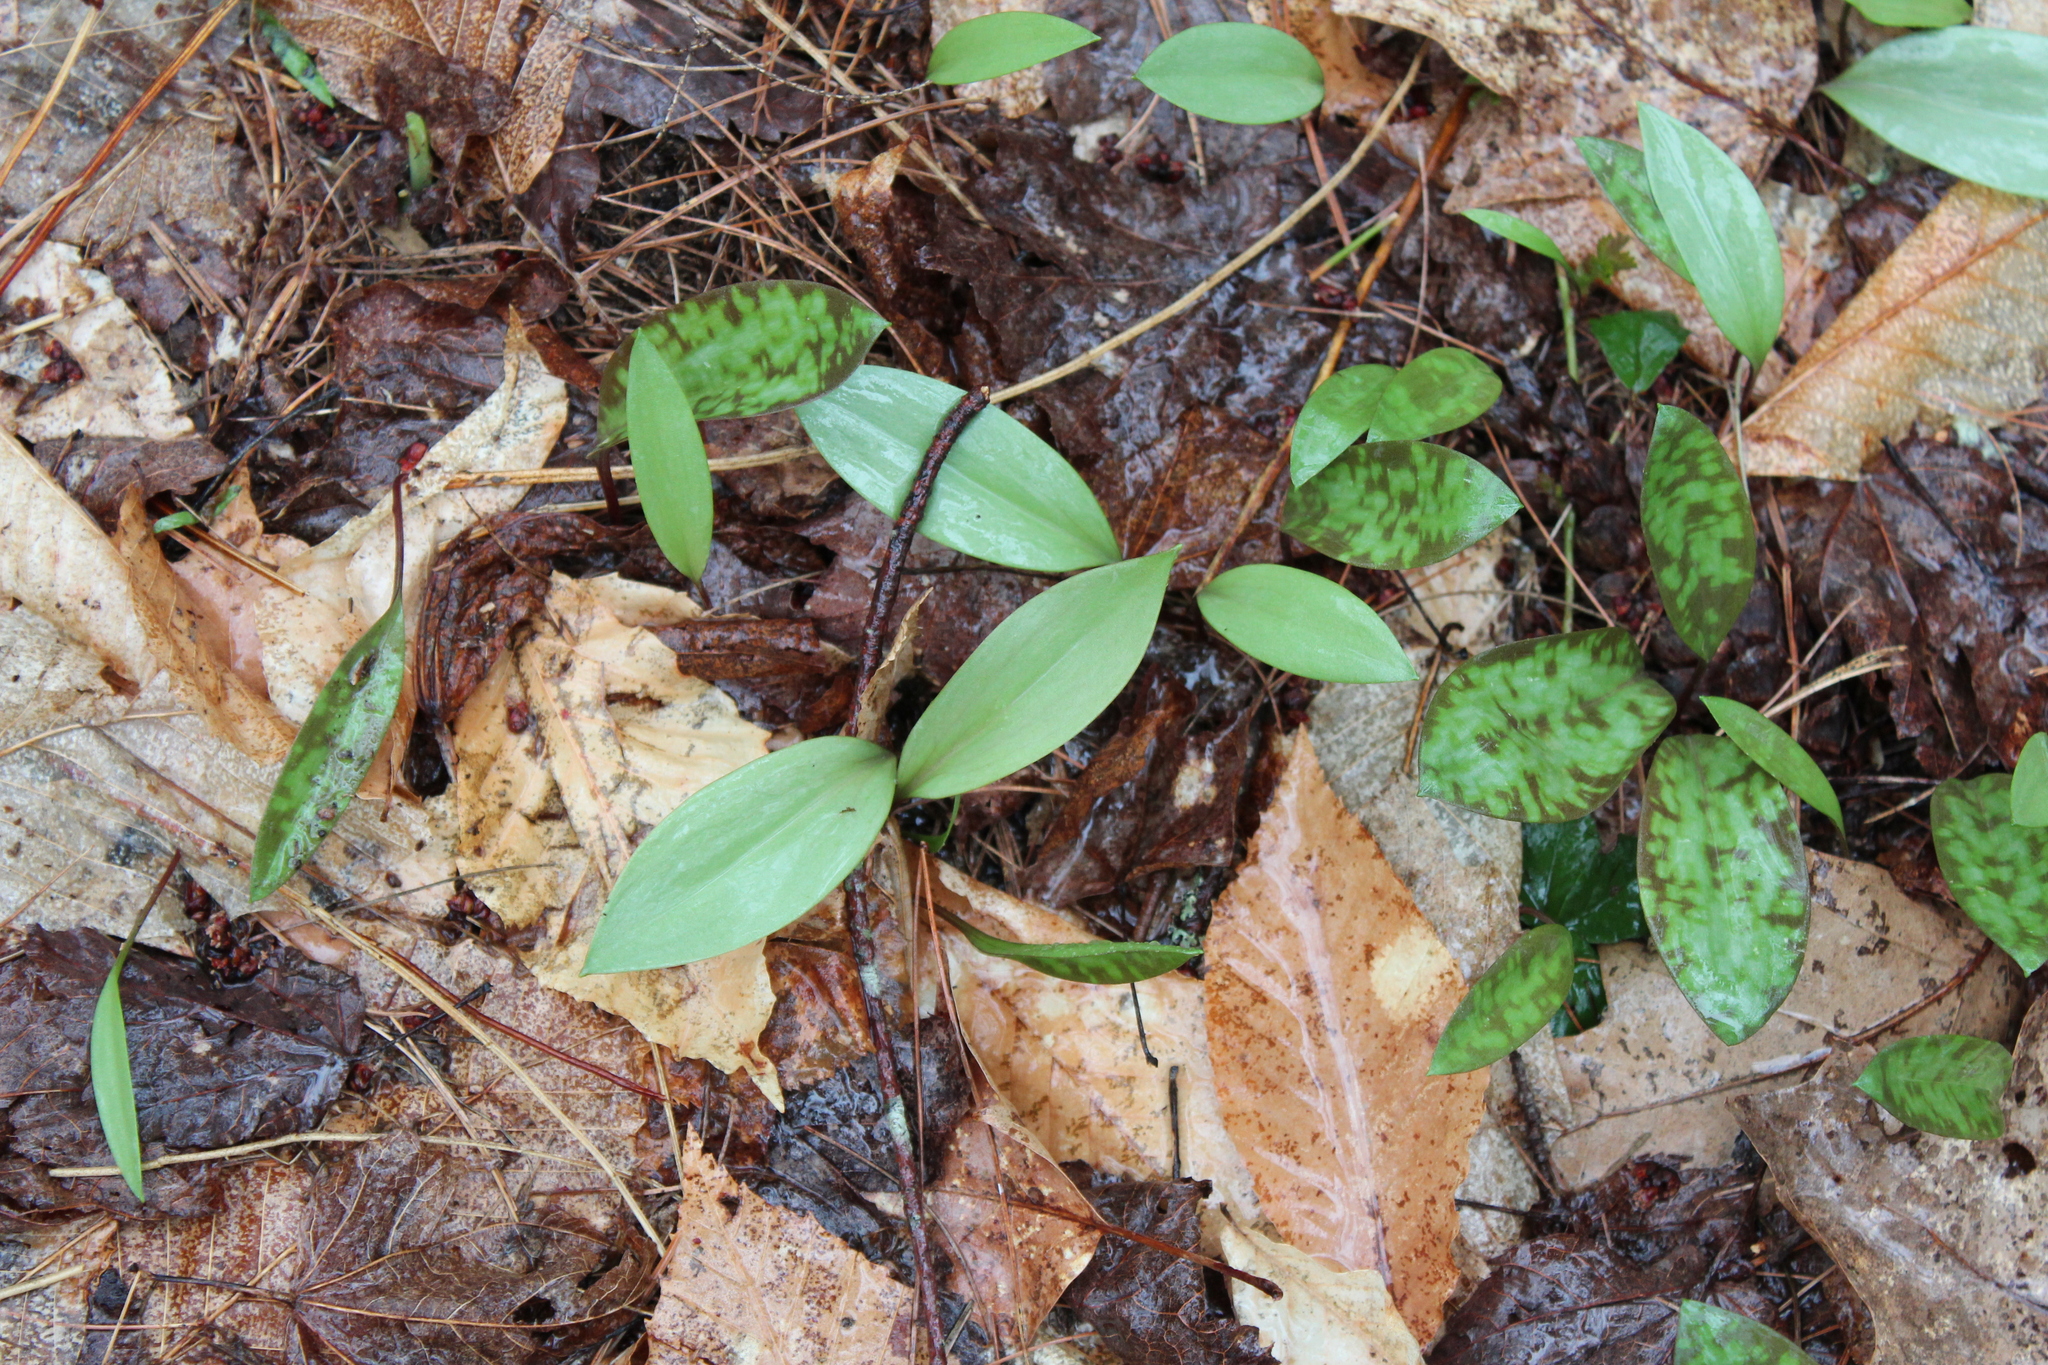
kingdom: Plantae
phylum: Tracheophyta
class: Liliopsida
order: Liliales
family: Liliaceae
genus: Erythronium
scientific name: Erythronium americanum
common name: Yellow adder's-tongue
